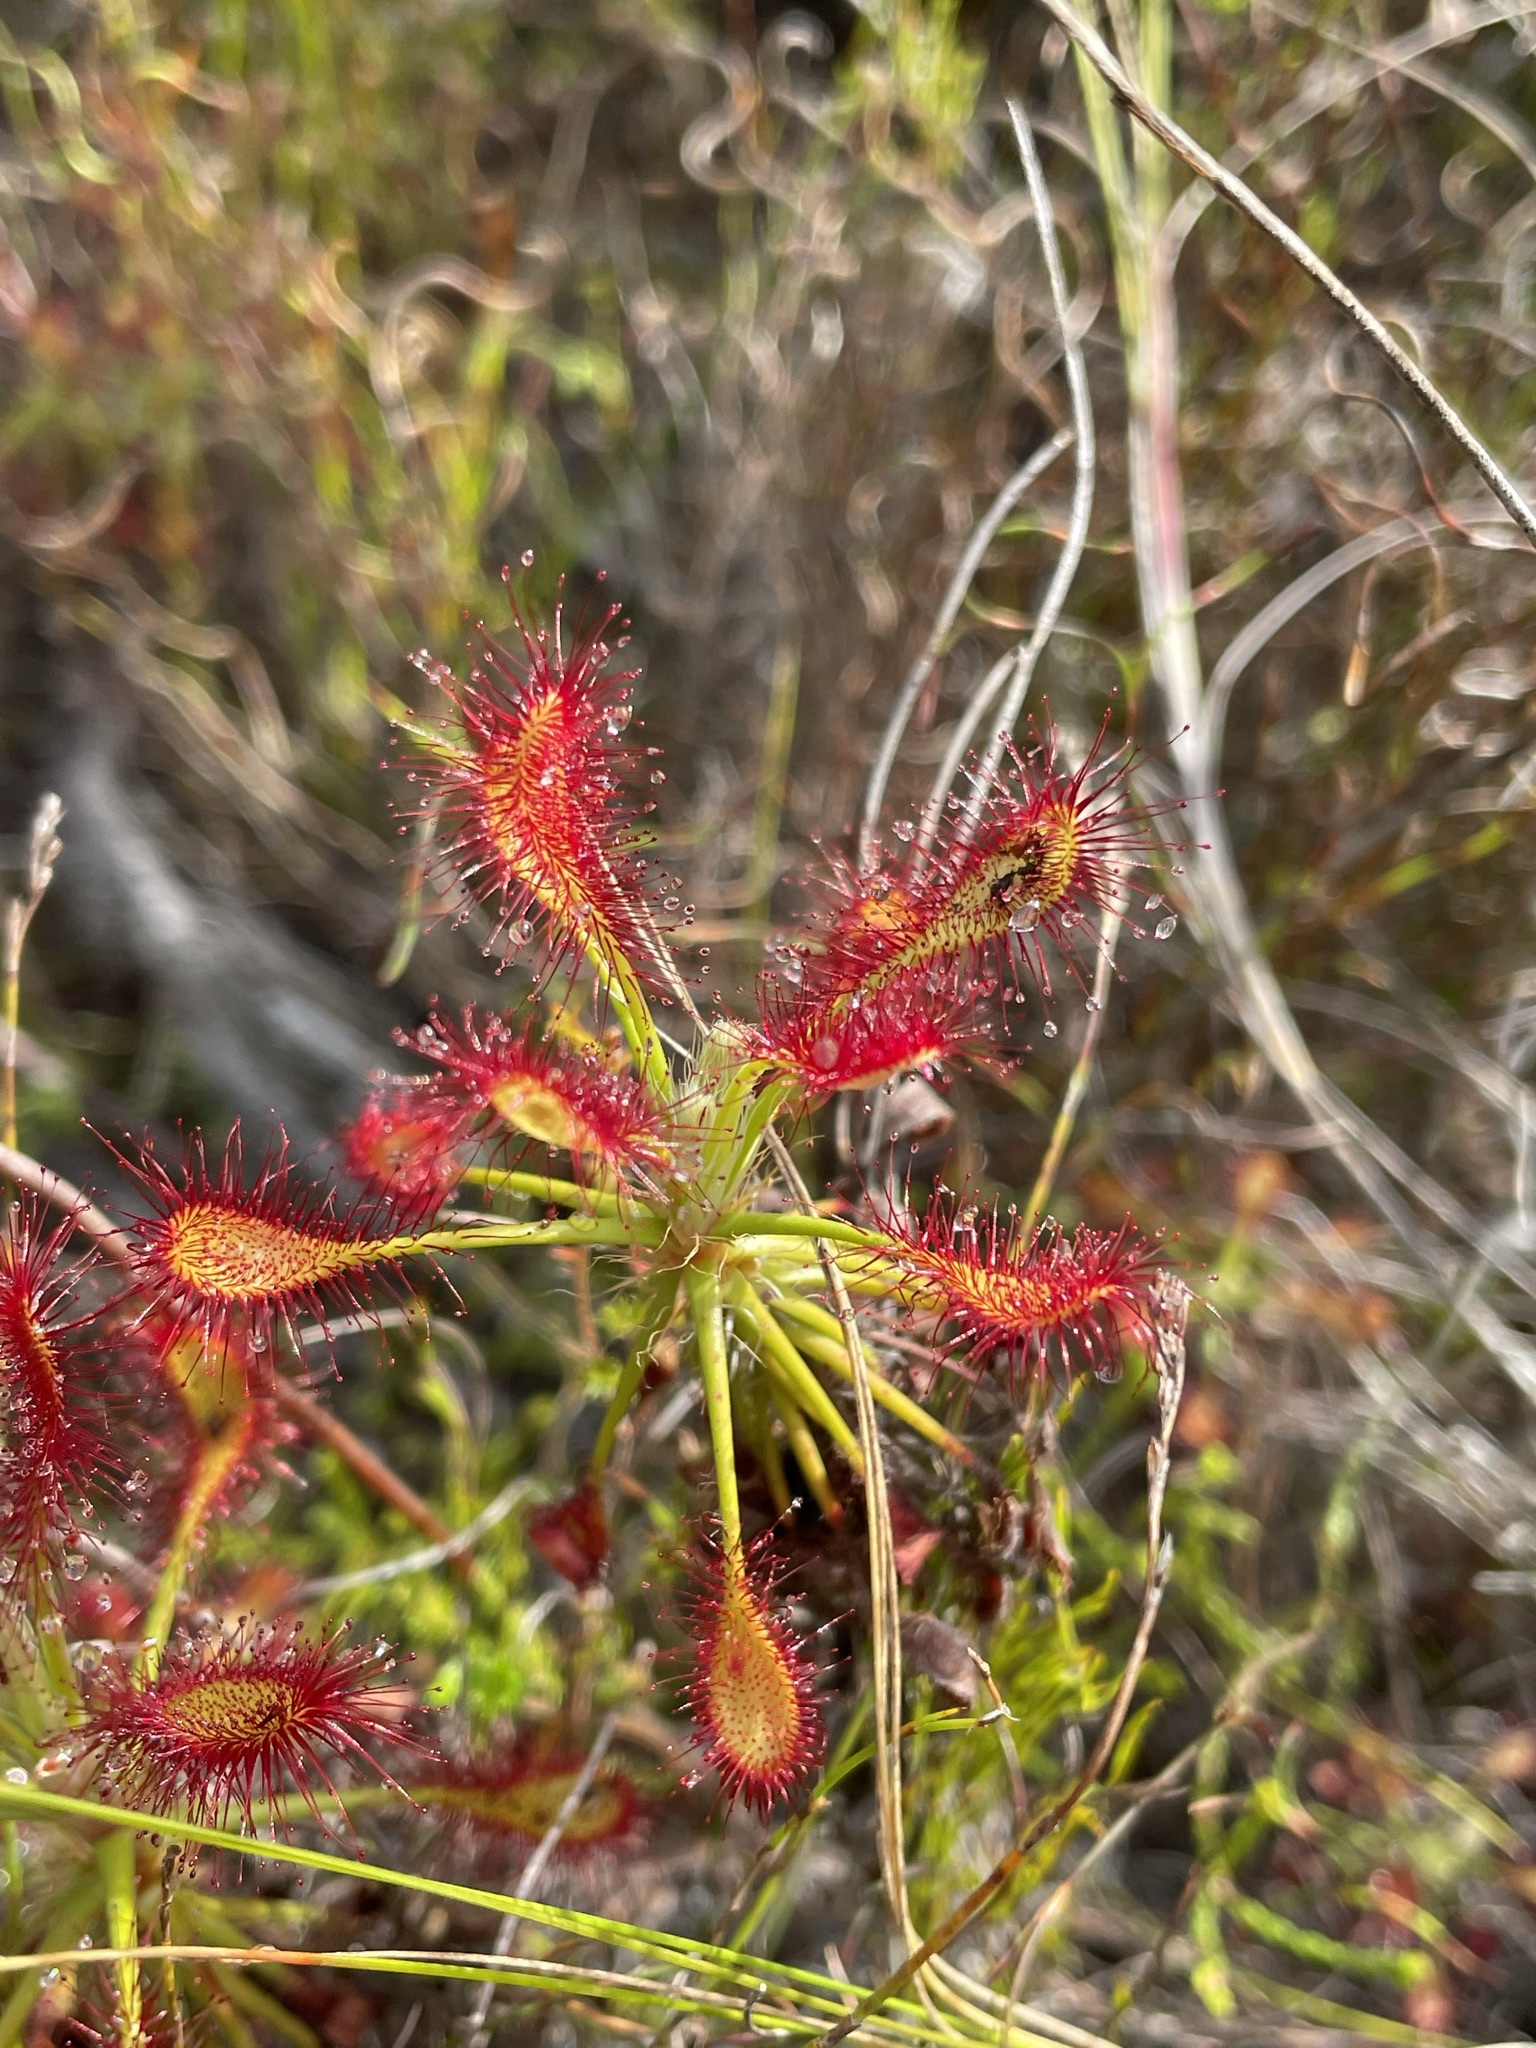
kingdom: Plantae
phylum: Tracheophyta
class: Magnoliopsida
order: Caryophyllales
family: Droseraceae
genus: Drosera
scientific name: Drosera glabripes
